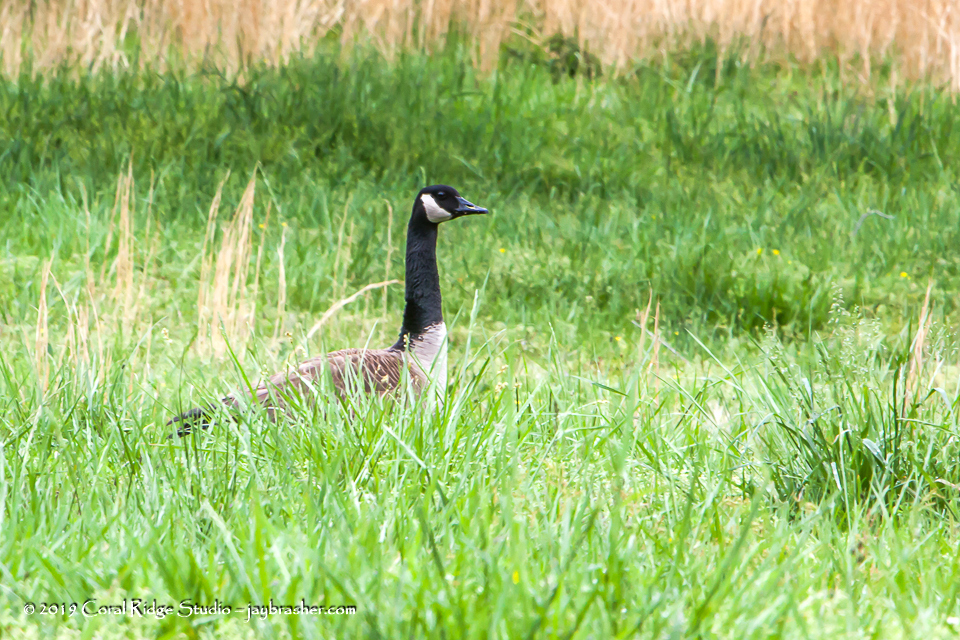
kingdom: Animalia
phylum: Chordata
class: Aves
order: Anseriformes
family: Anatidae
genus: Branta
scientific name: Branta canadensis
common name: Canada goose
